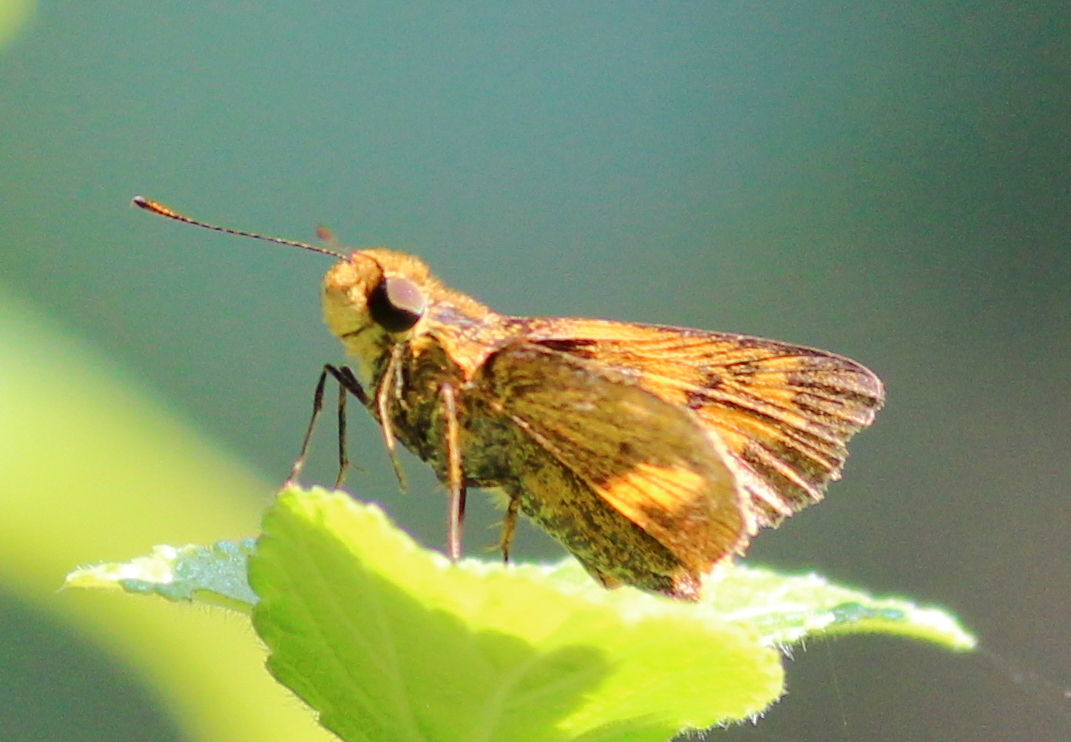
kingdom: Animalia
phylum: Arthropoda
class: Insecta
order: Lepidoptera
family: Hesperiidae
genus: Oriens
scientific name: Oriens goloides
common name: Smaller dartlet
